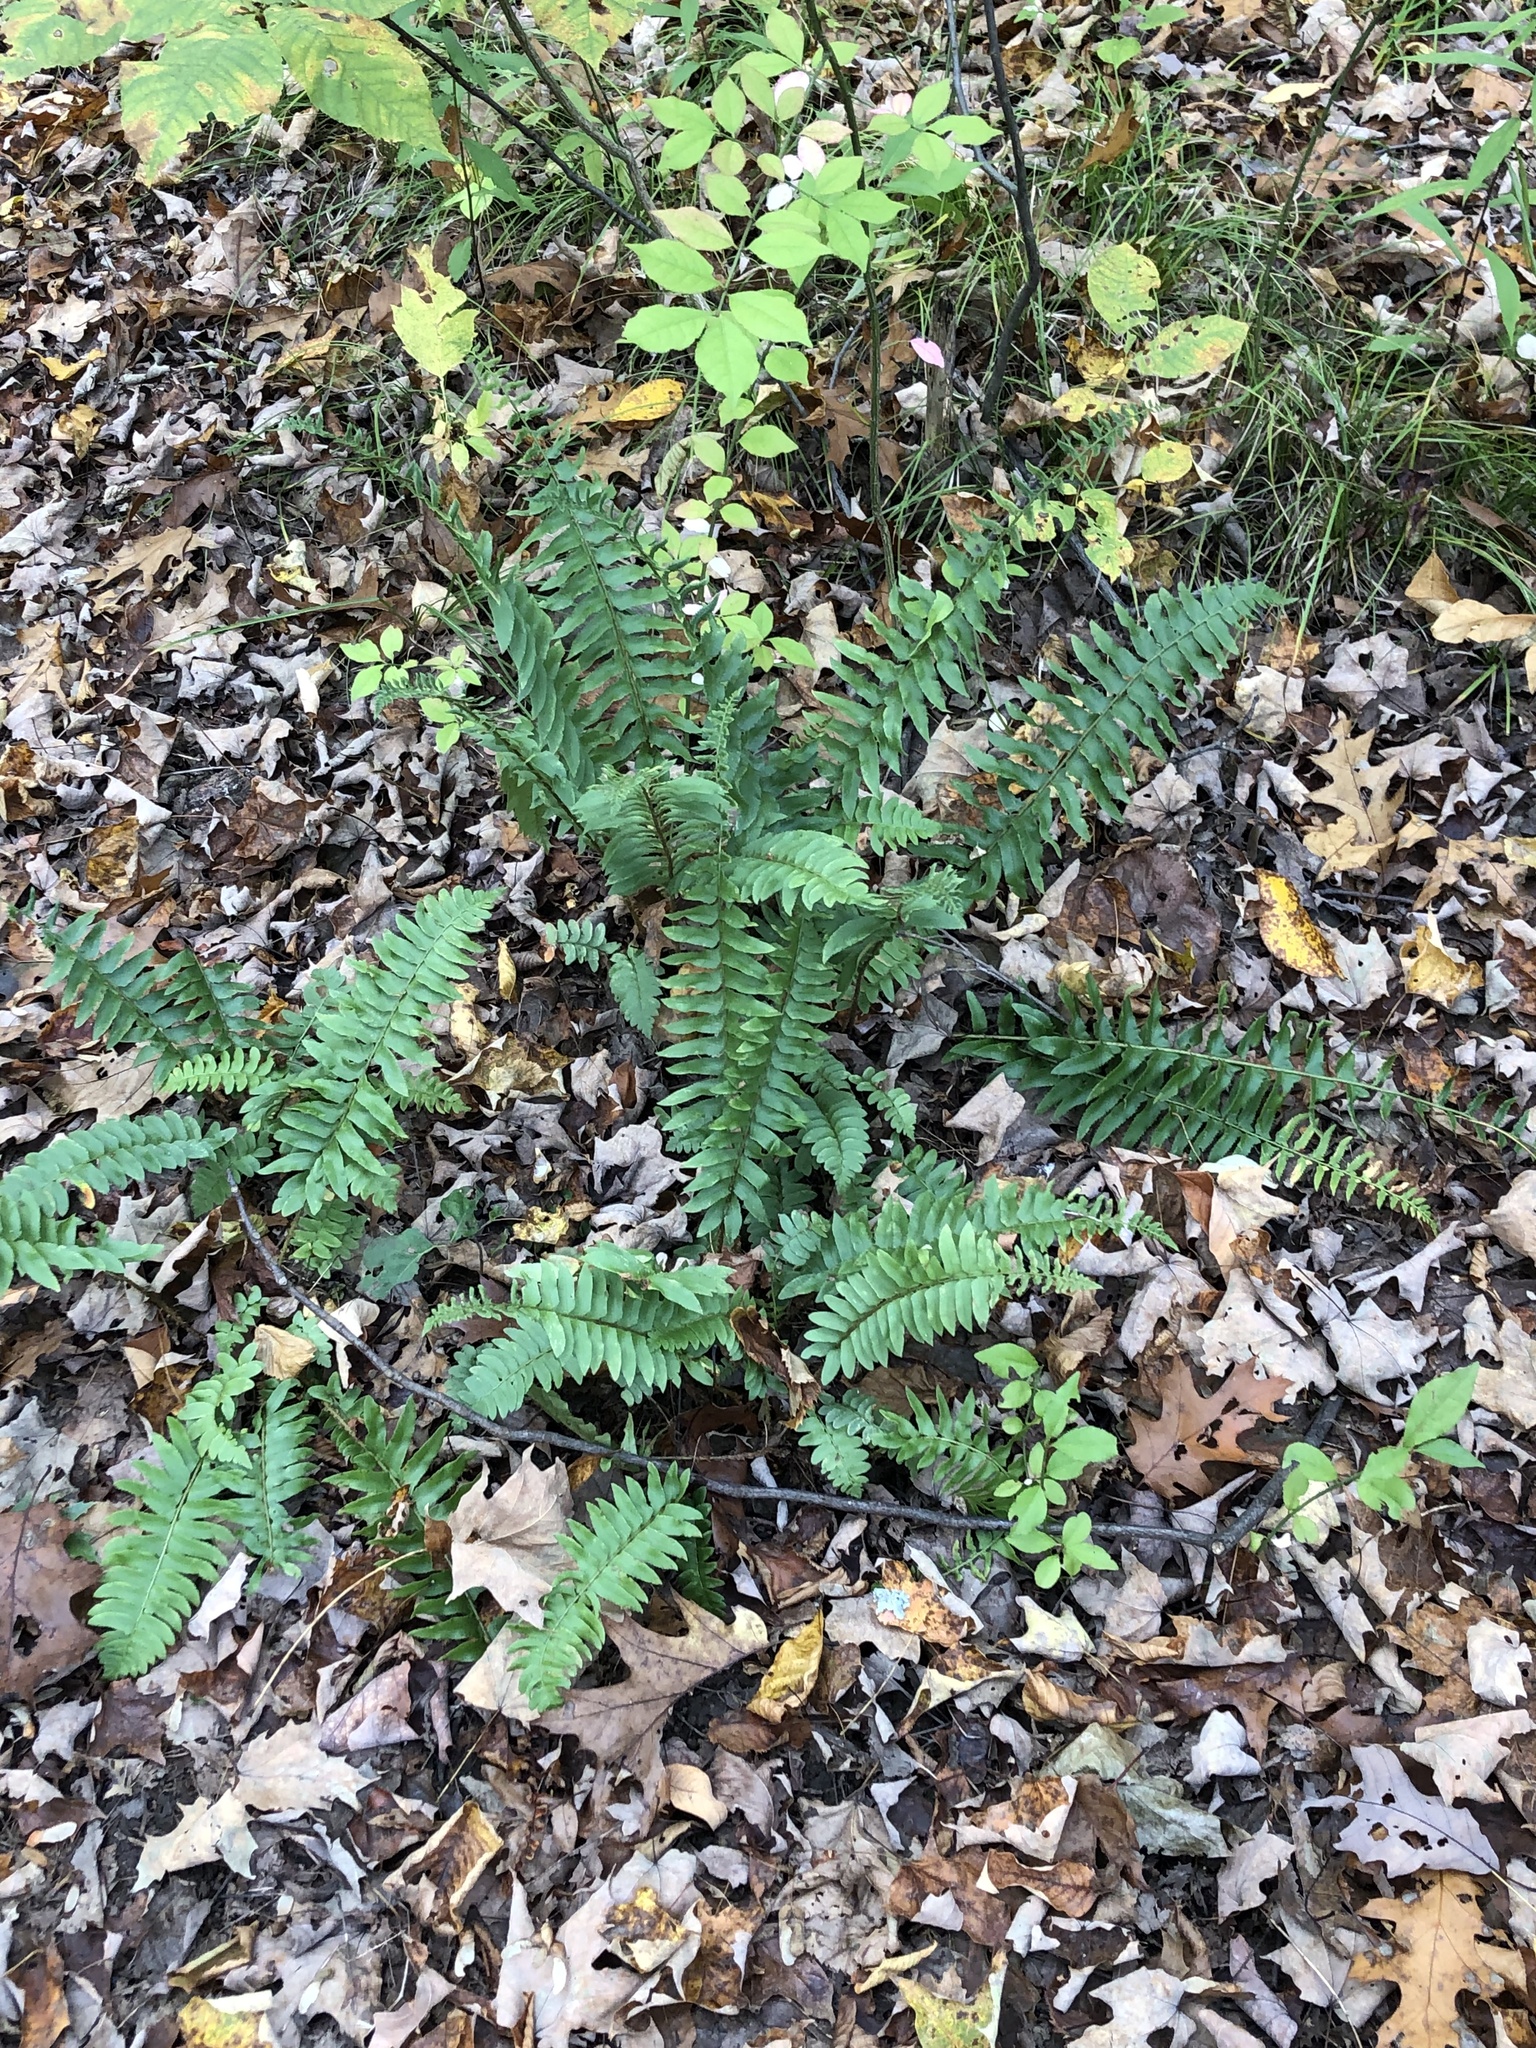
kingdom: Plantae
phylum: Tracheophyta
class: Polypodiopsida
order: Polypodiales
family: Dryopteridaceae
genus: Polystichum
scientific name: Polystichum acrostichoides
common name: Christmas fern
